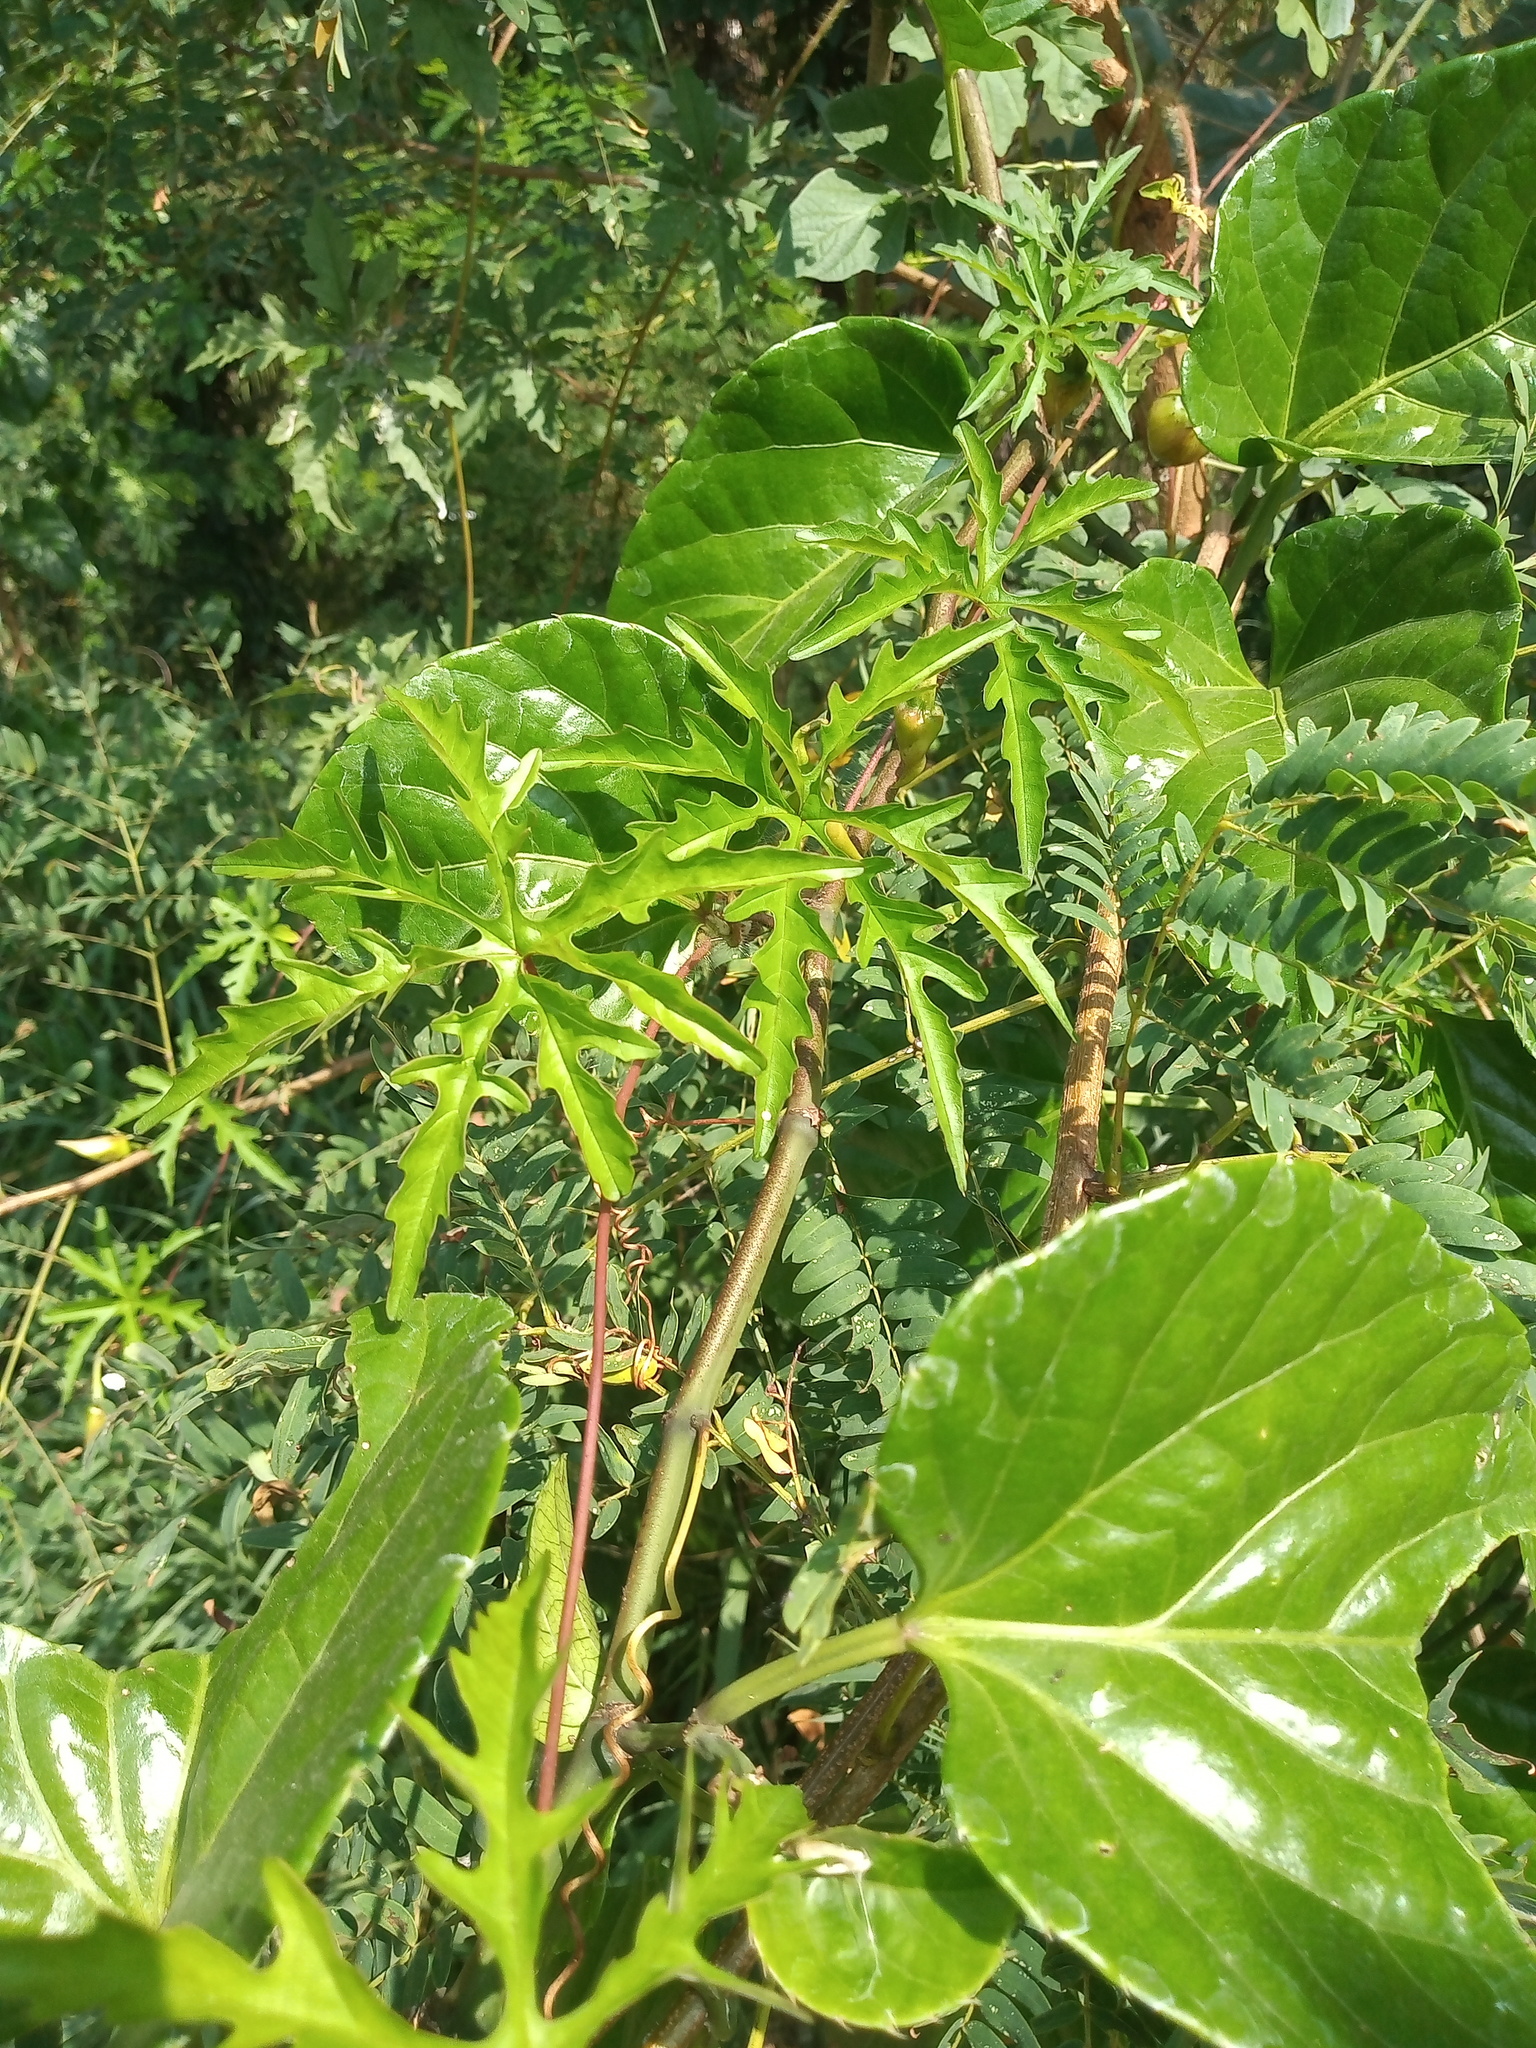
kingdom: Plantae
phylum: Tracheophyta
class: Magnoliopsida
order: Solanales
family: Convolvulaceae
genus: Distimake
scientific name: Distimake dissectus
